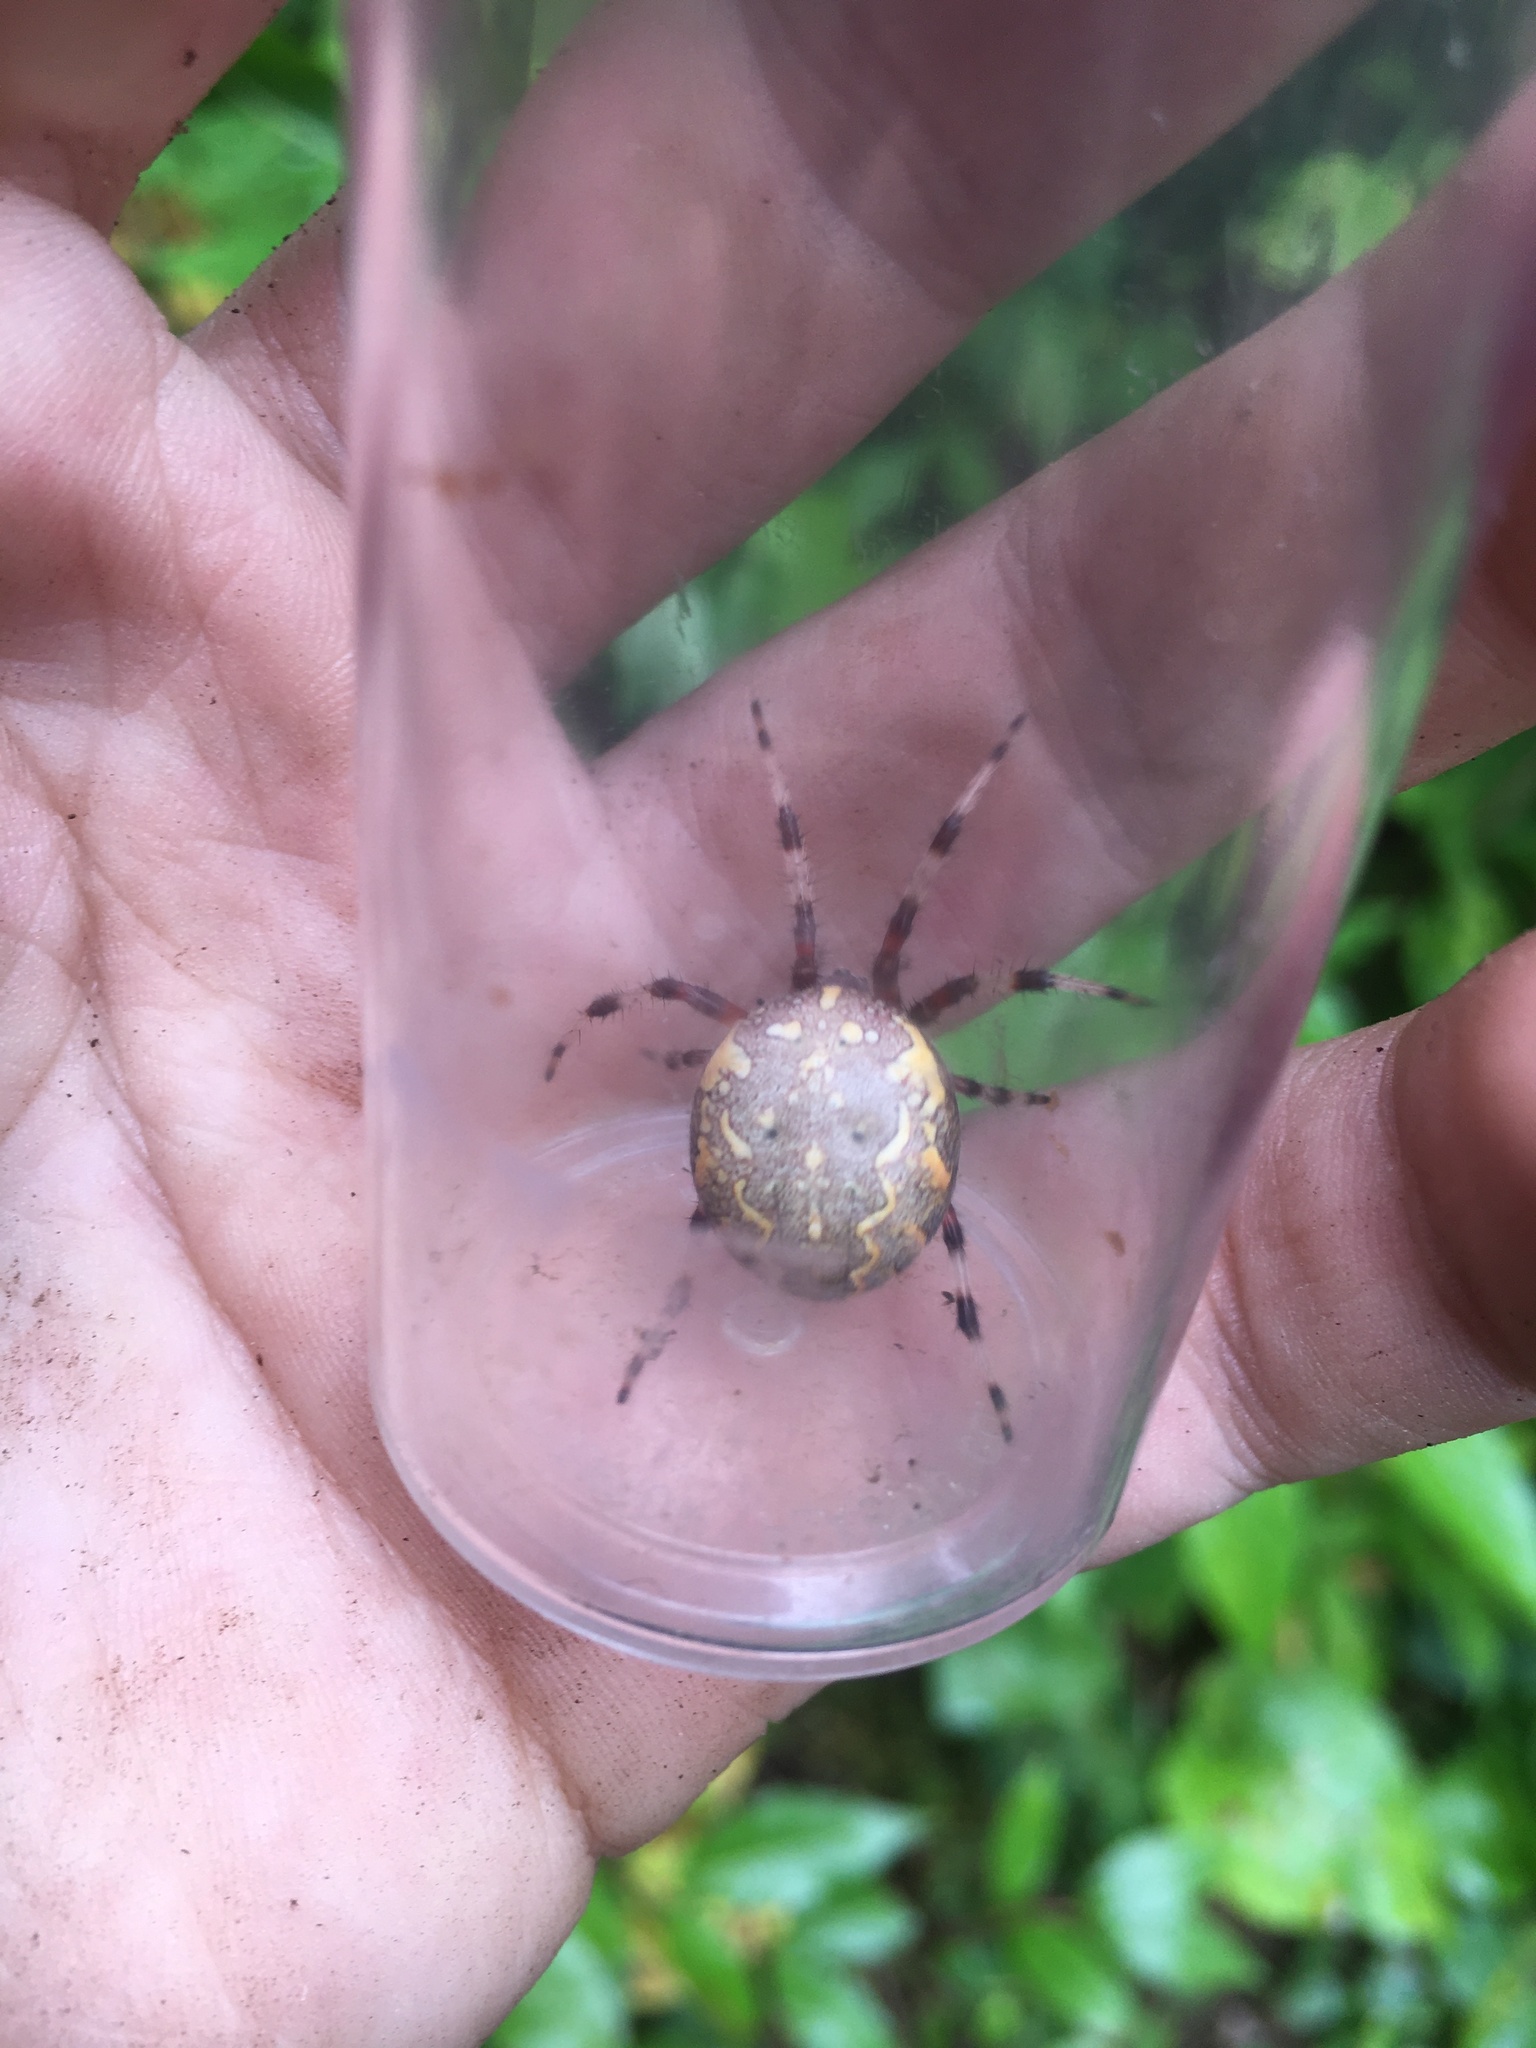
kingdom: Animalia
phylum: Arthropoda
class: Arachnida
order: Araneae
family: Araneidae
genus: Araneus
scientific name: Araneus marmoreus
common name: Marbled orbweaver
